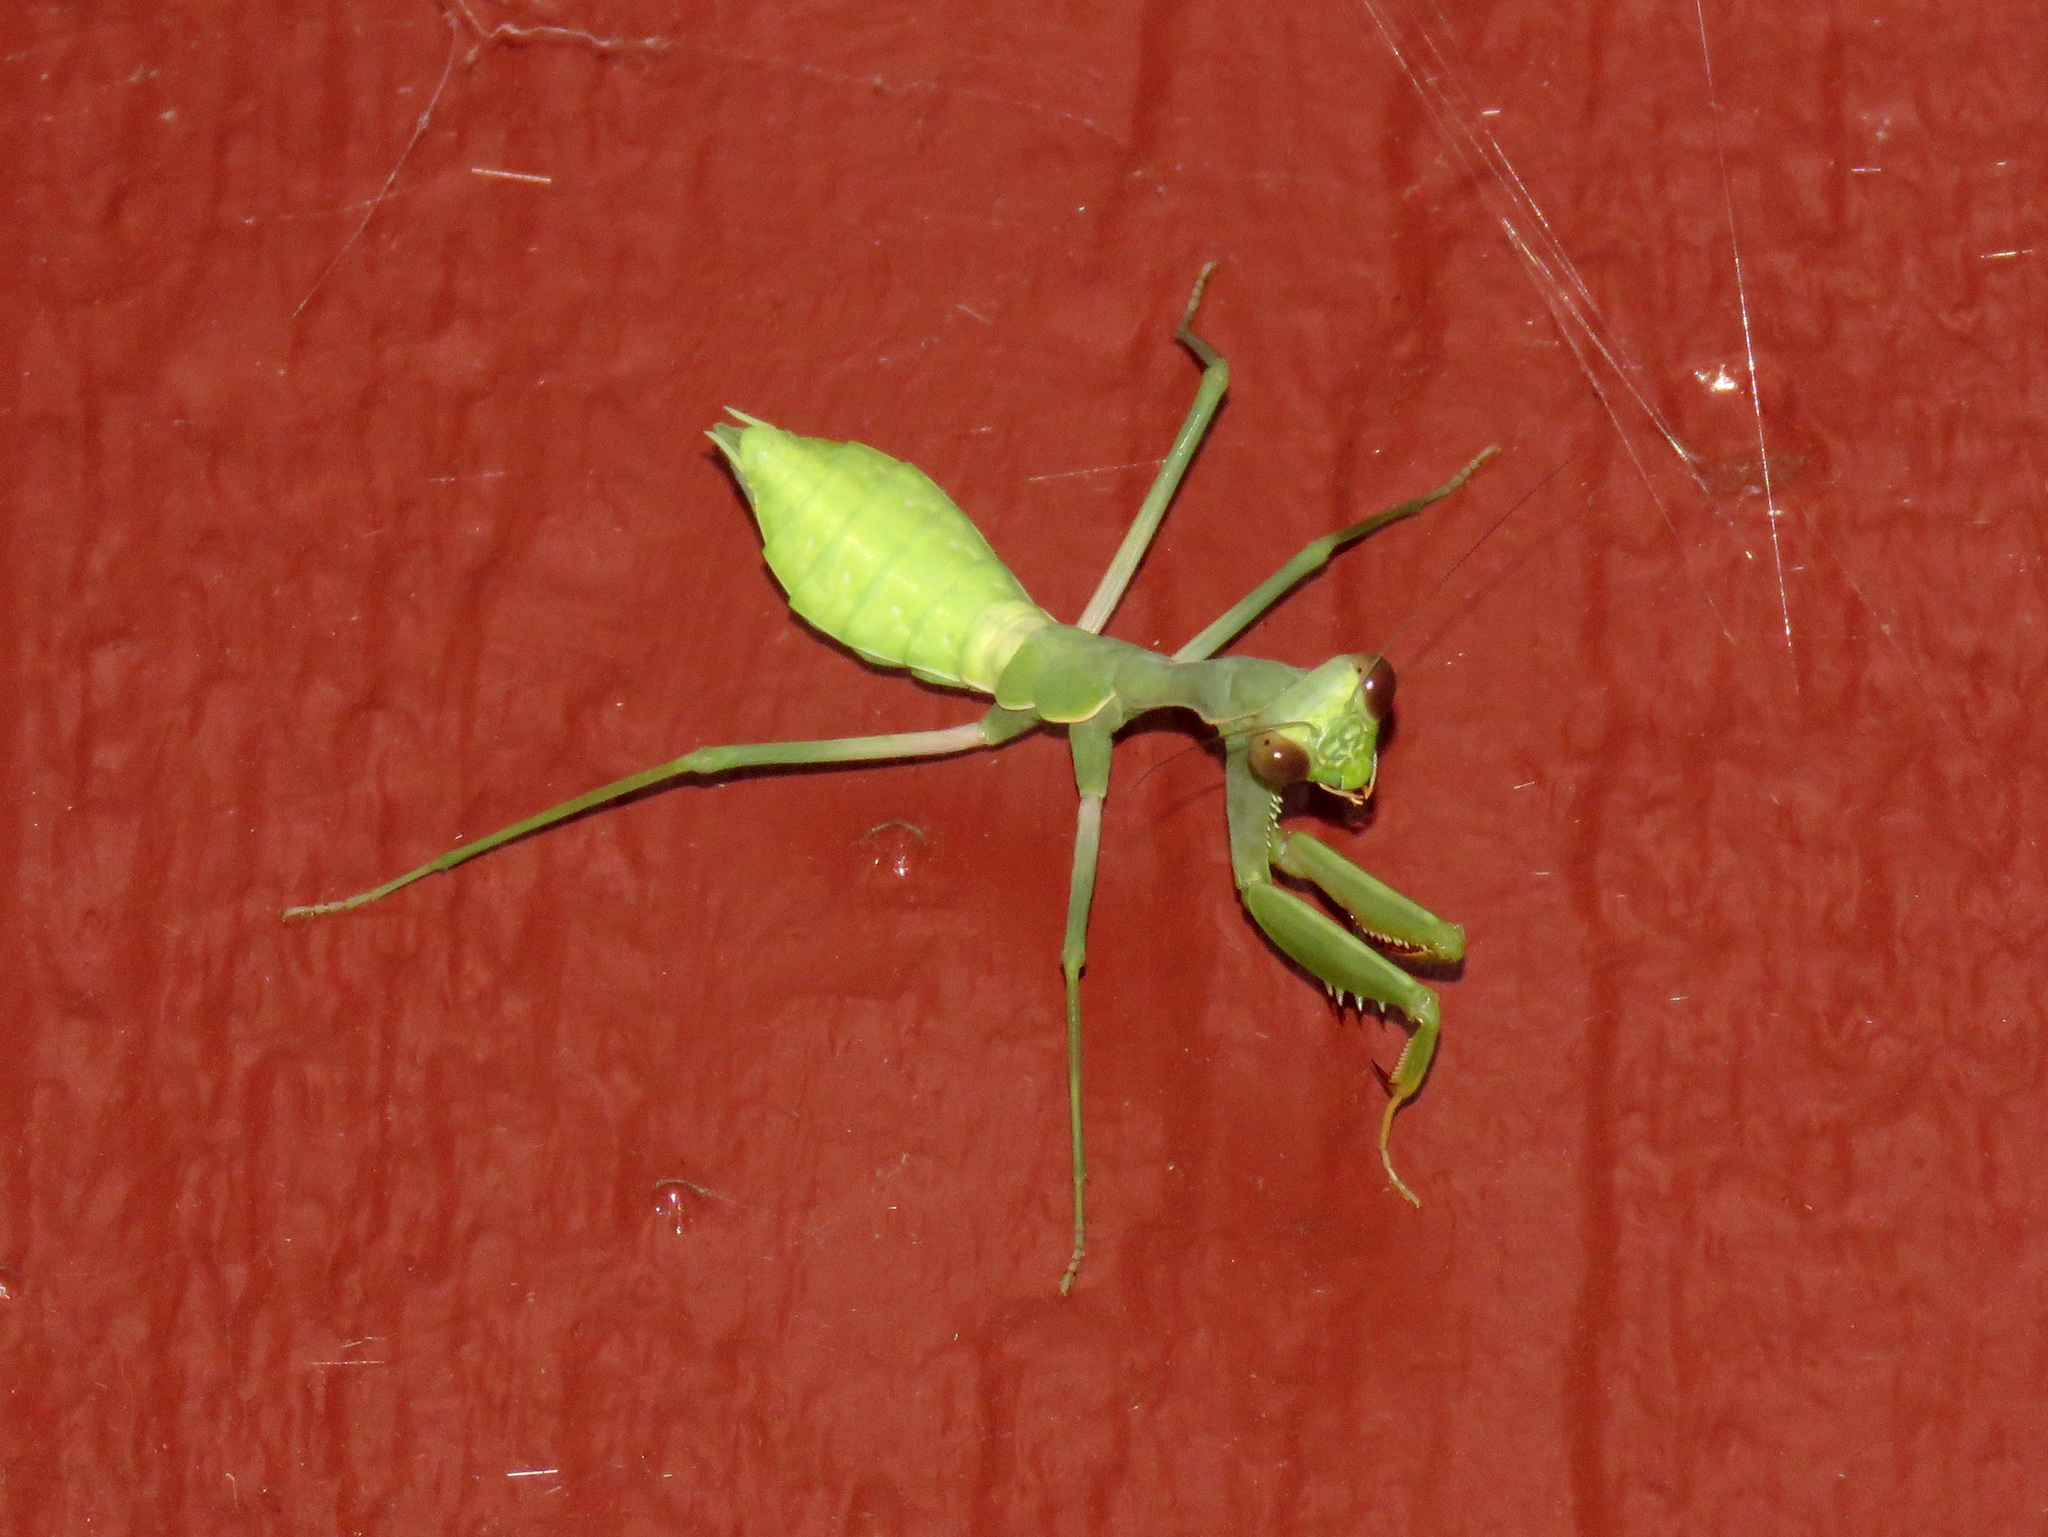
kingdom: Animalia
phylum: Arthropoda
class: Insecta
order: Mantodea
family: Mantidae
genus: Stagmomantis
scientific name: Stagmomantis limbata
